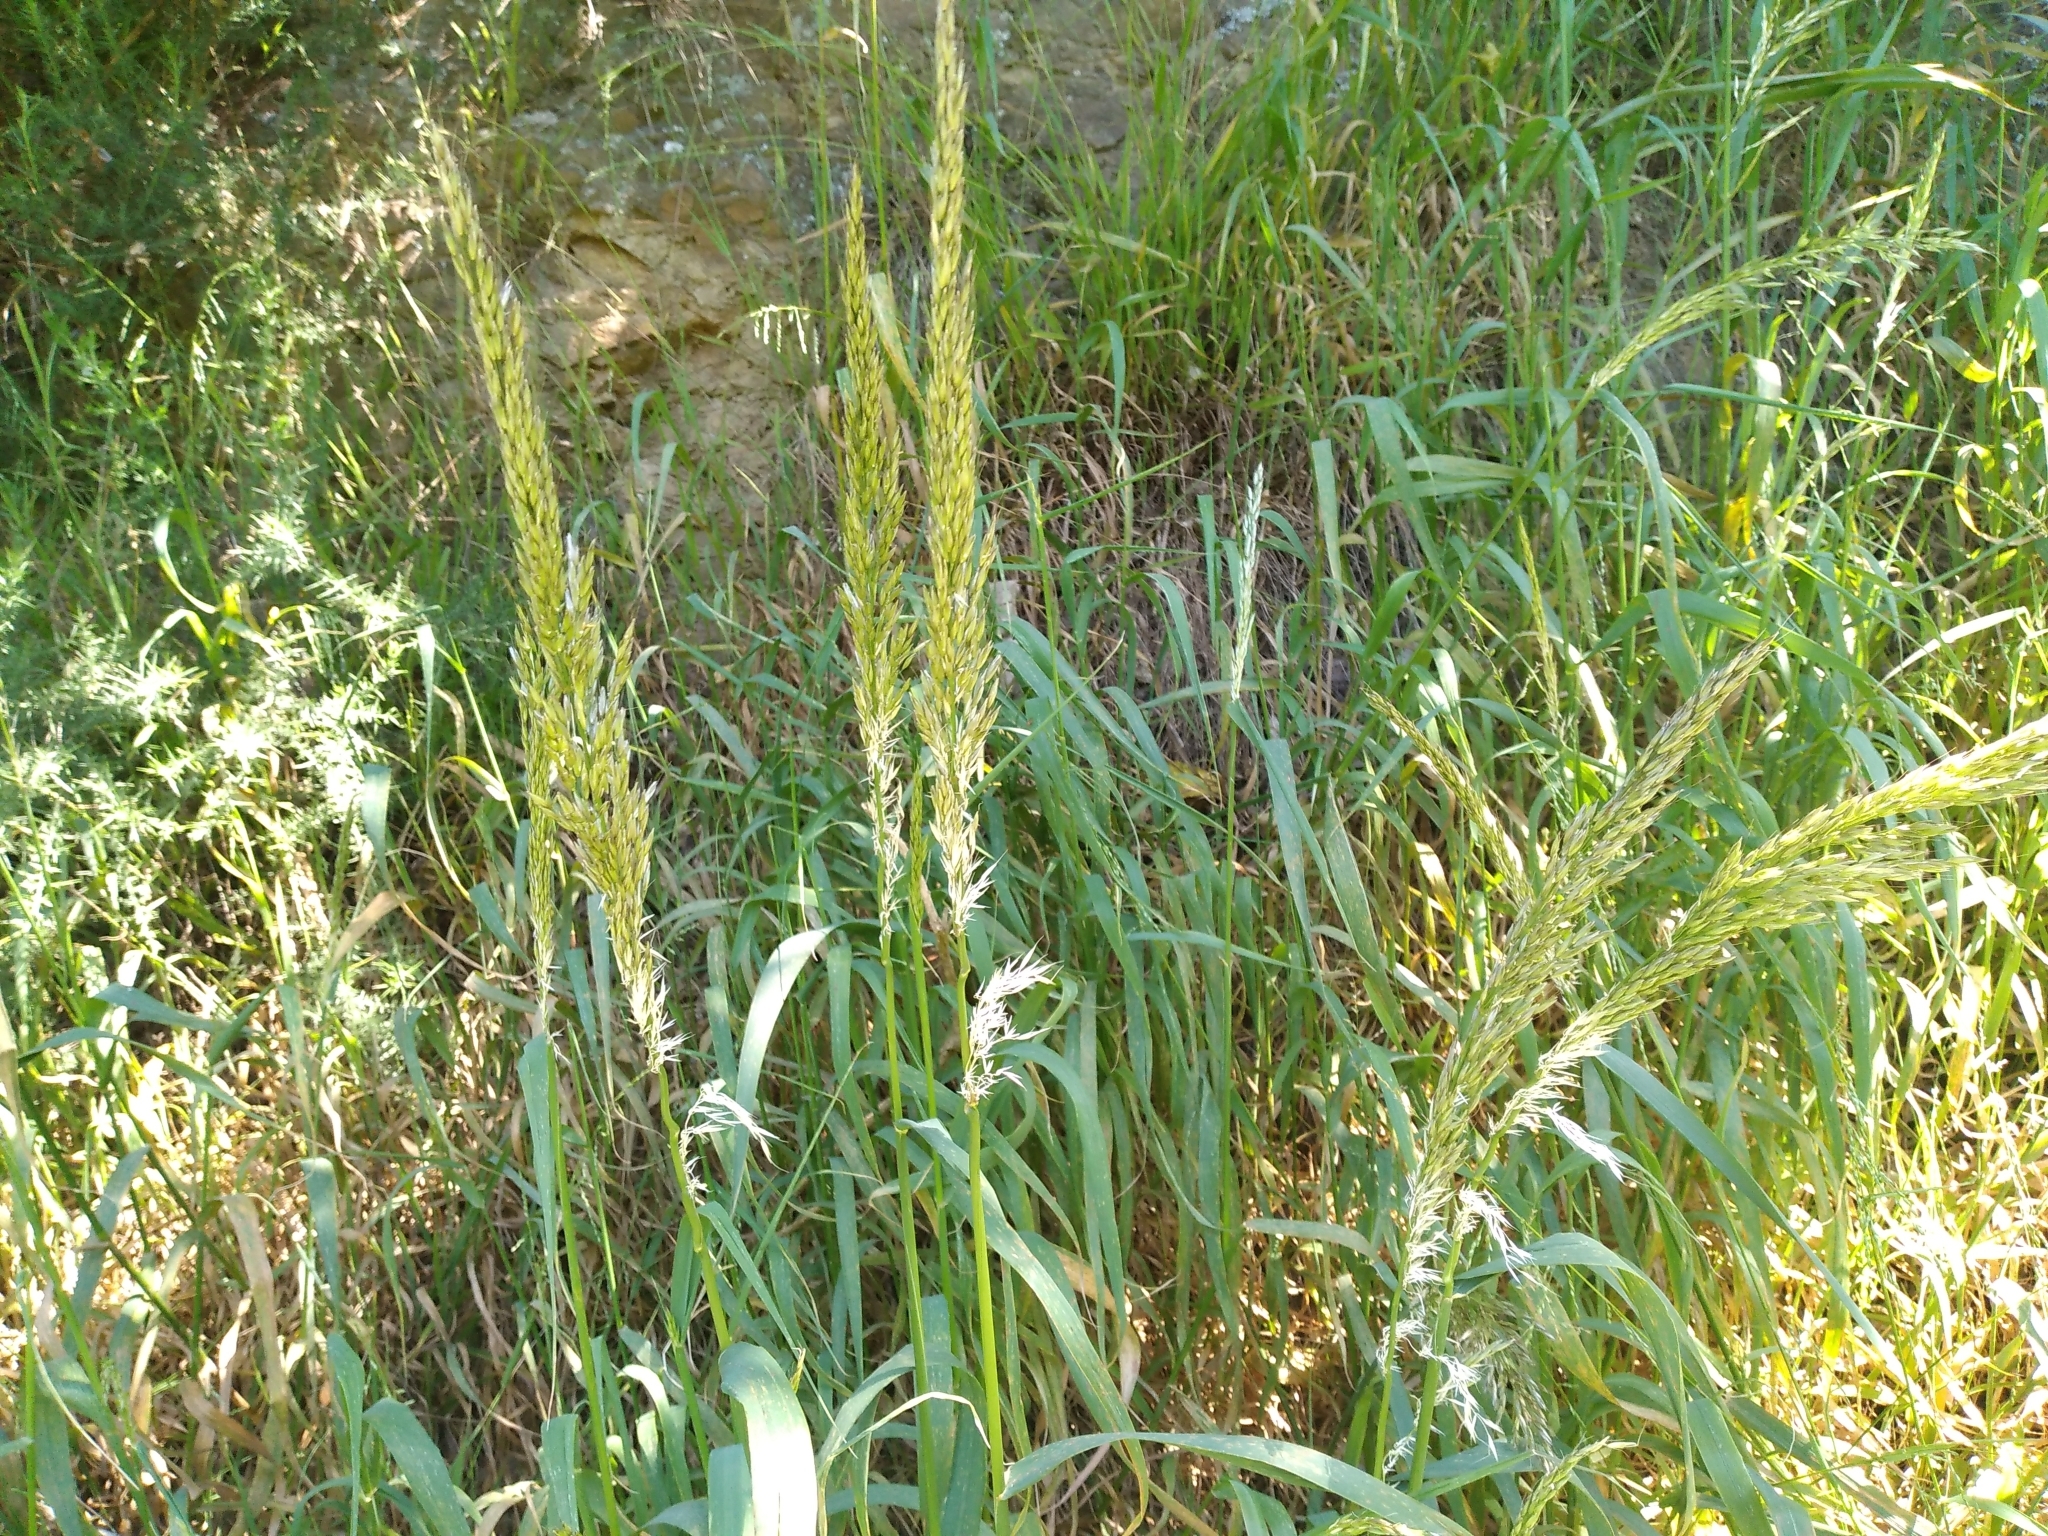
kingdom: Plantae
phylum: Tracheophyta
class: Liliopsida
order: Poales
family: Poaceae
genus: Arrhenatherum
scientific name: Arrhenatherum elatius
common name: Tall oatgrass
